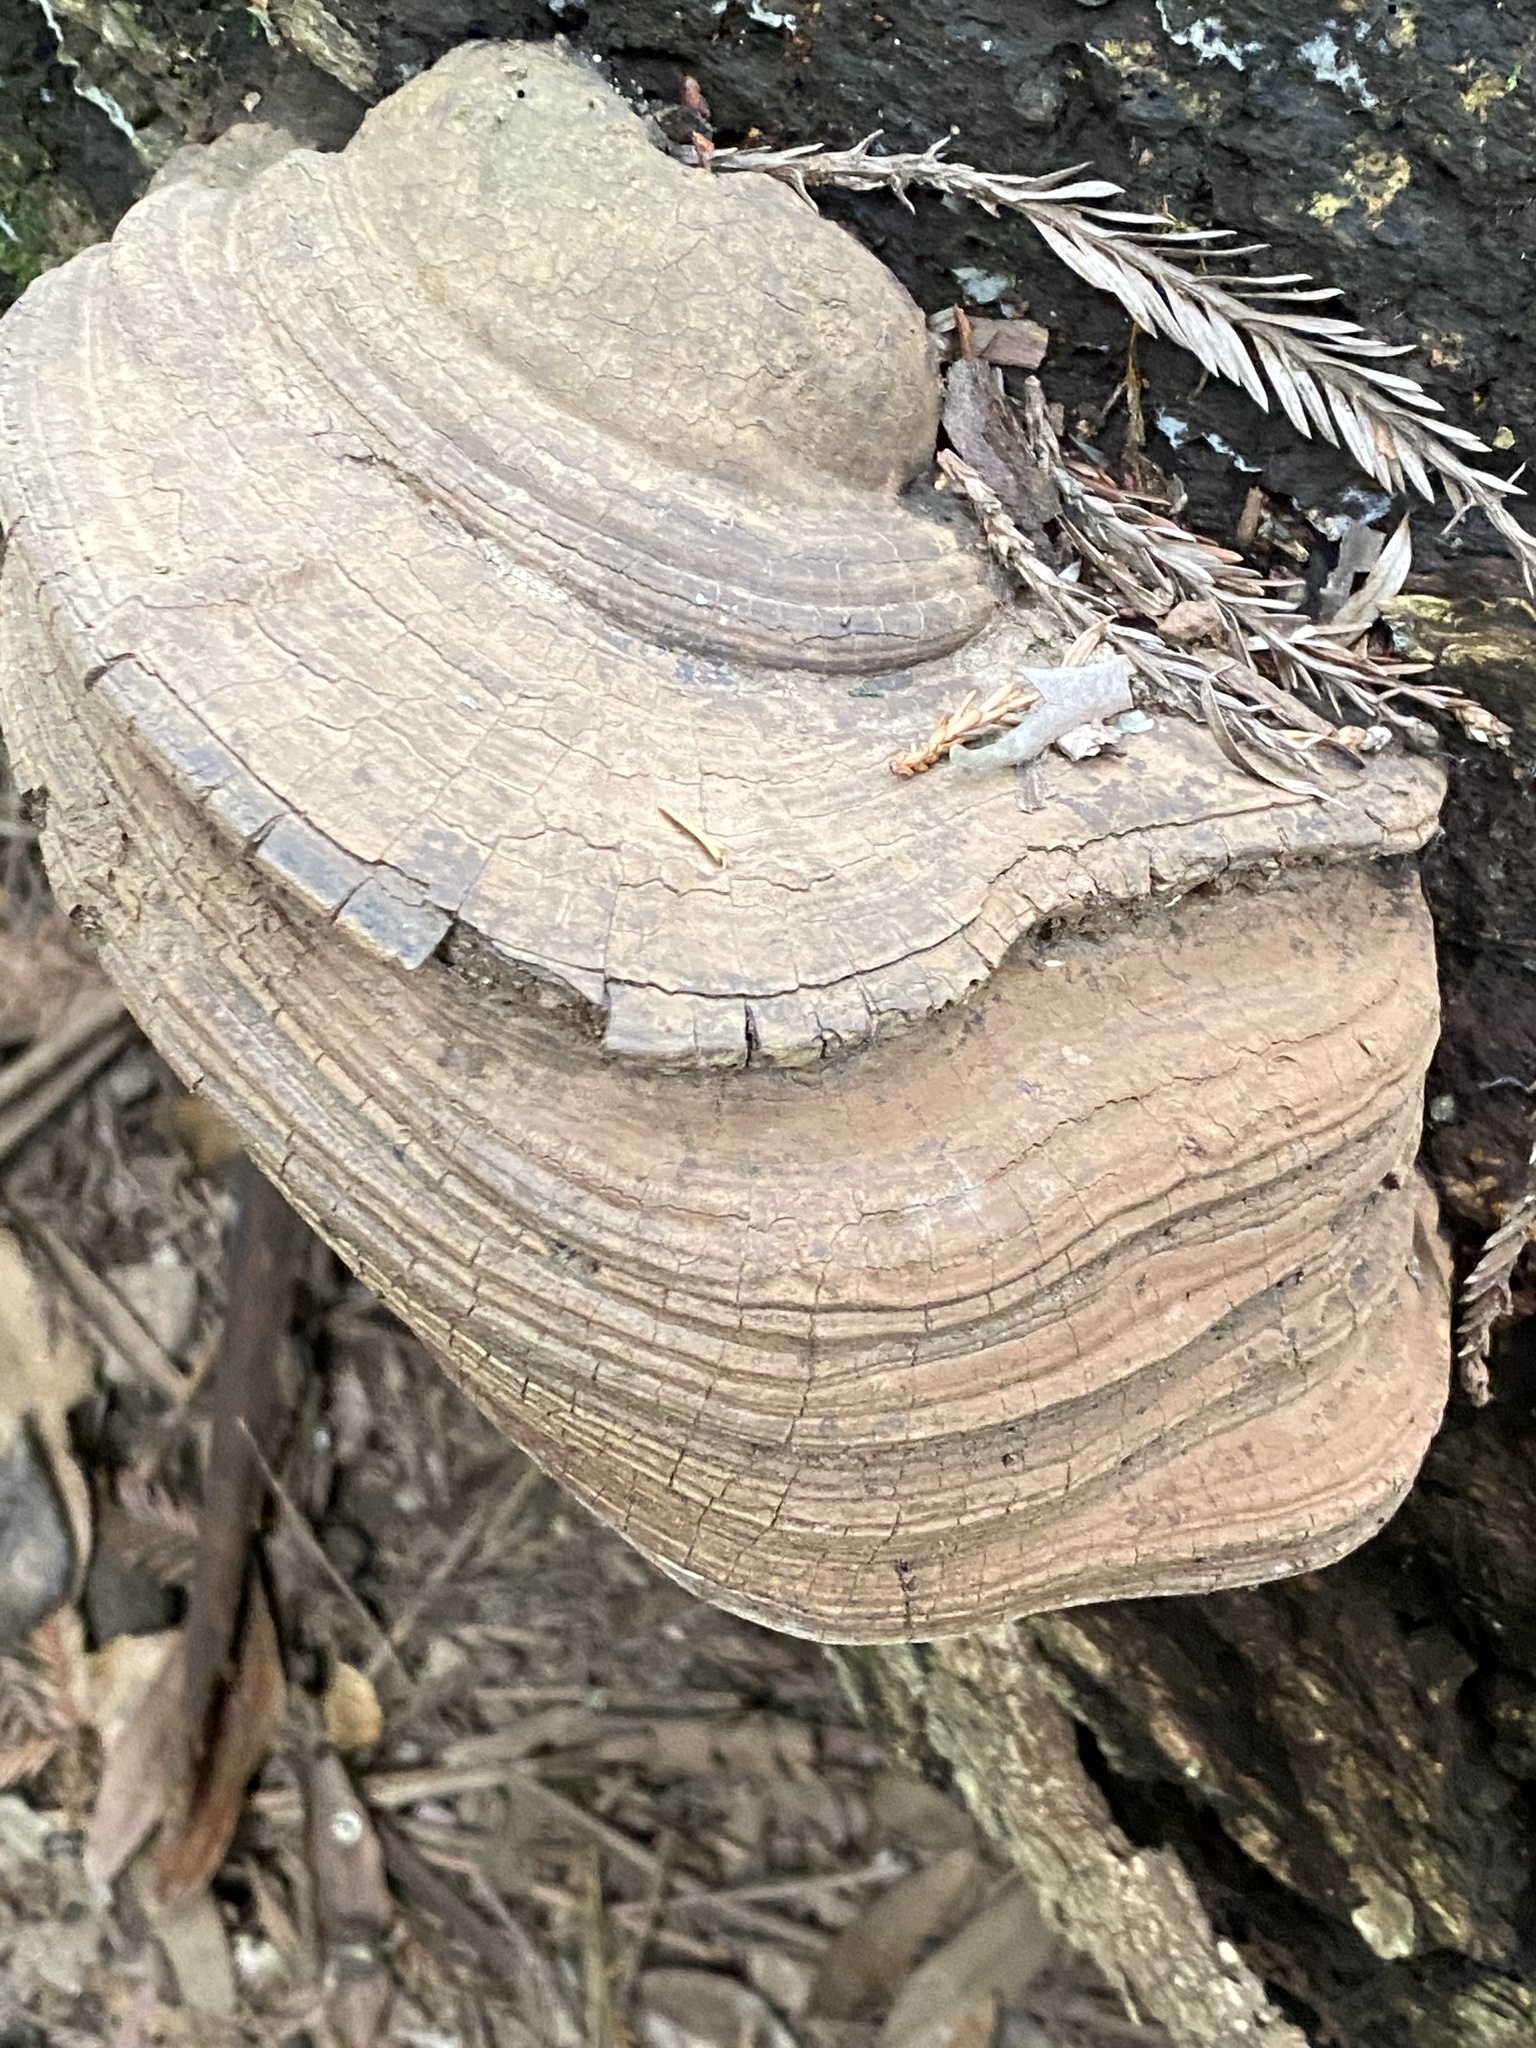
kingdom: Fungi
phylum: Basidiomycota
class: Agaricomycetes
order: Polyporales
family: Polyporaceae
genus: Ganoderma
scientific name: Ganoderma brownii
